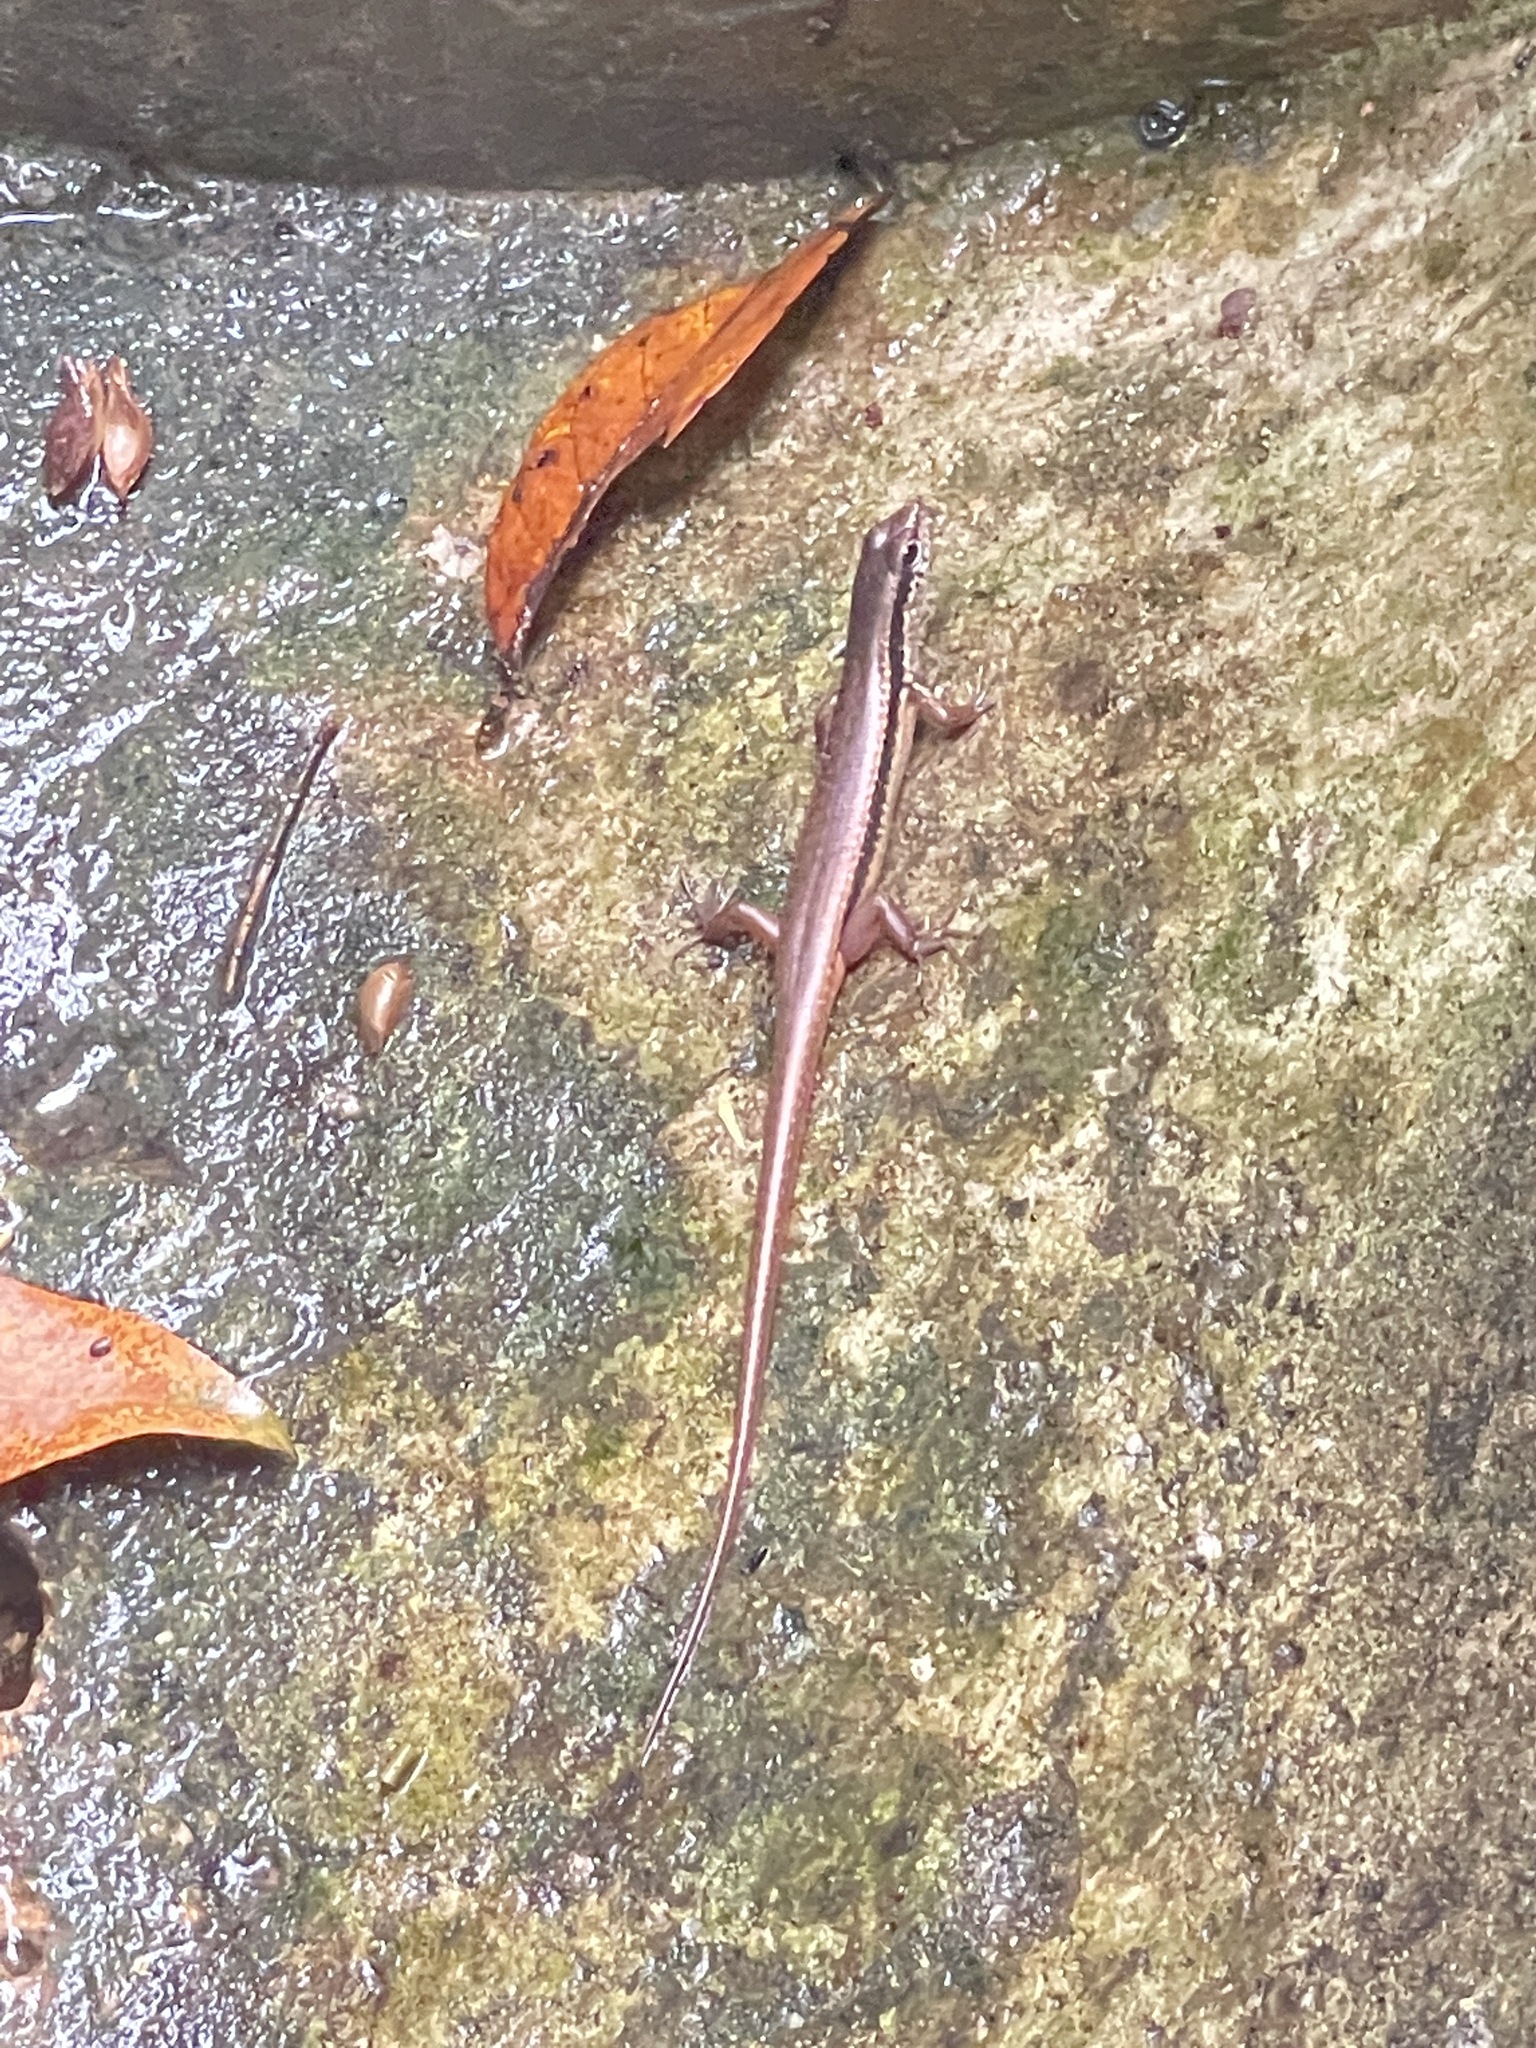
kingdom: Animalia
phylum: Chordata
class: Squamata
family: Scincidae
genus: Sphenomorphus
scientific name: Sphenomorphus indicus
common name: Himalayan forest skink
